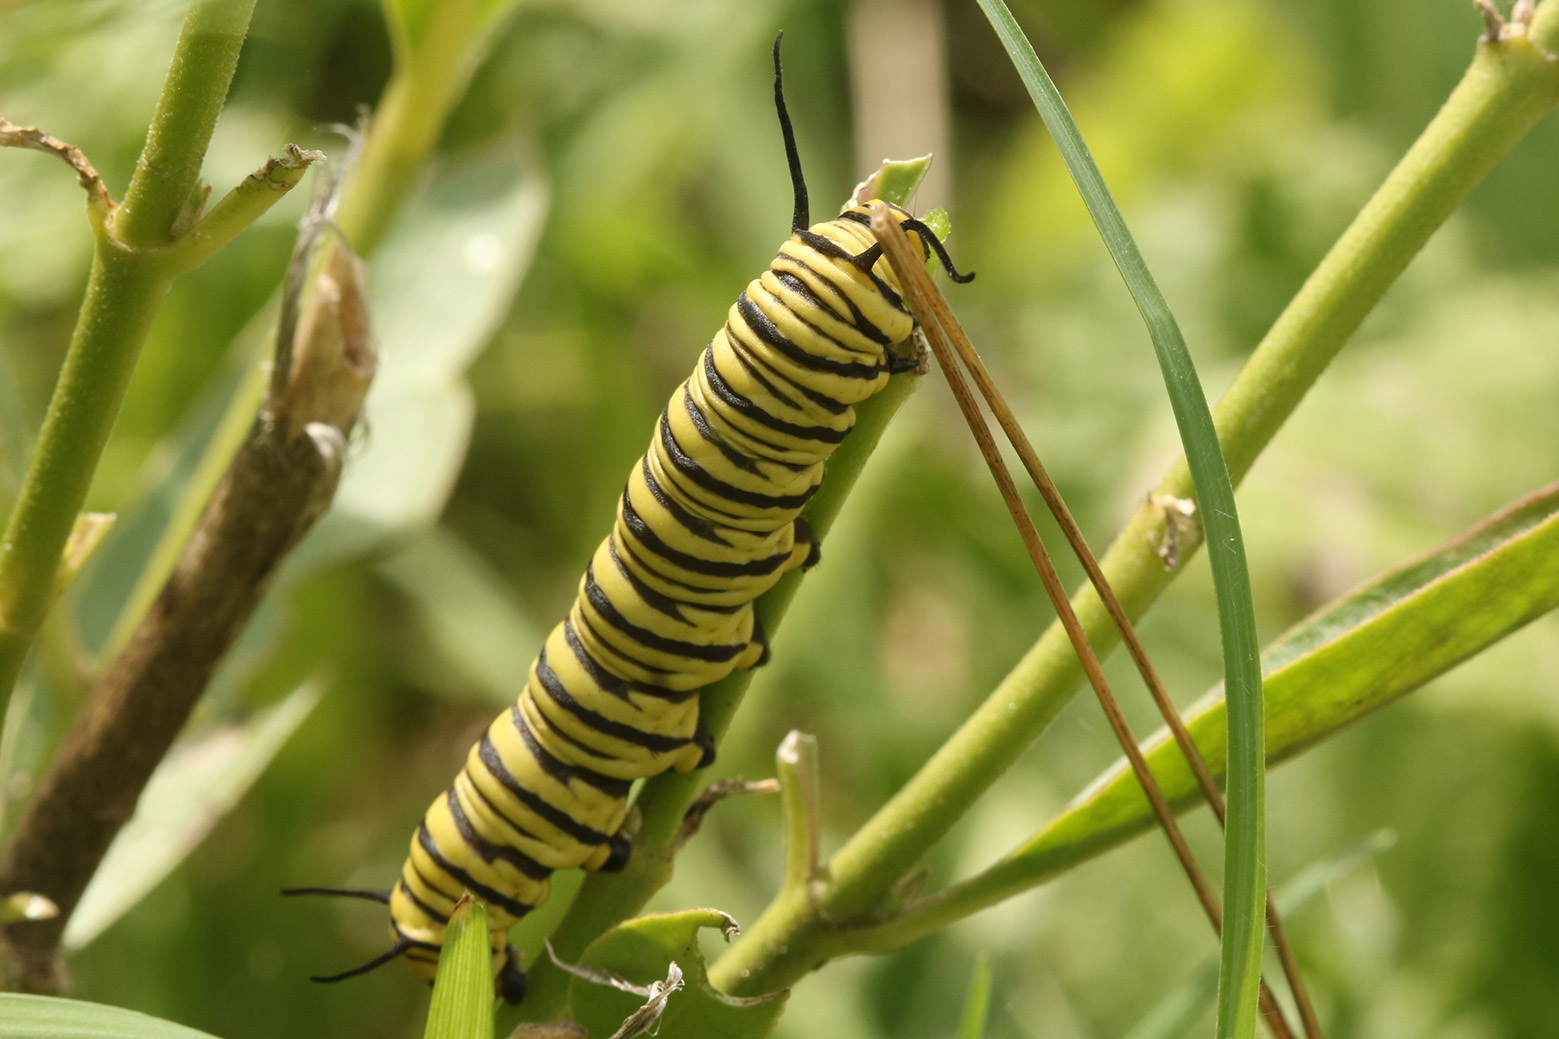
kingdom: Animalia
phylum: Arthropoda
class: Insecta
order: Lepidoptera
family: Nymphalidae
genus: Danaus
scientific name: Danaus erippus
